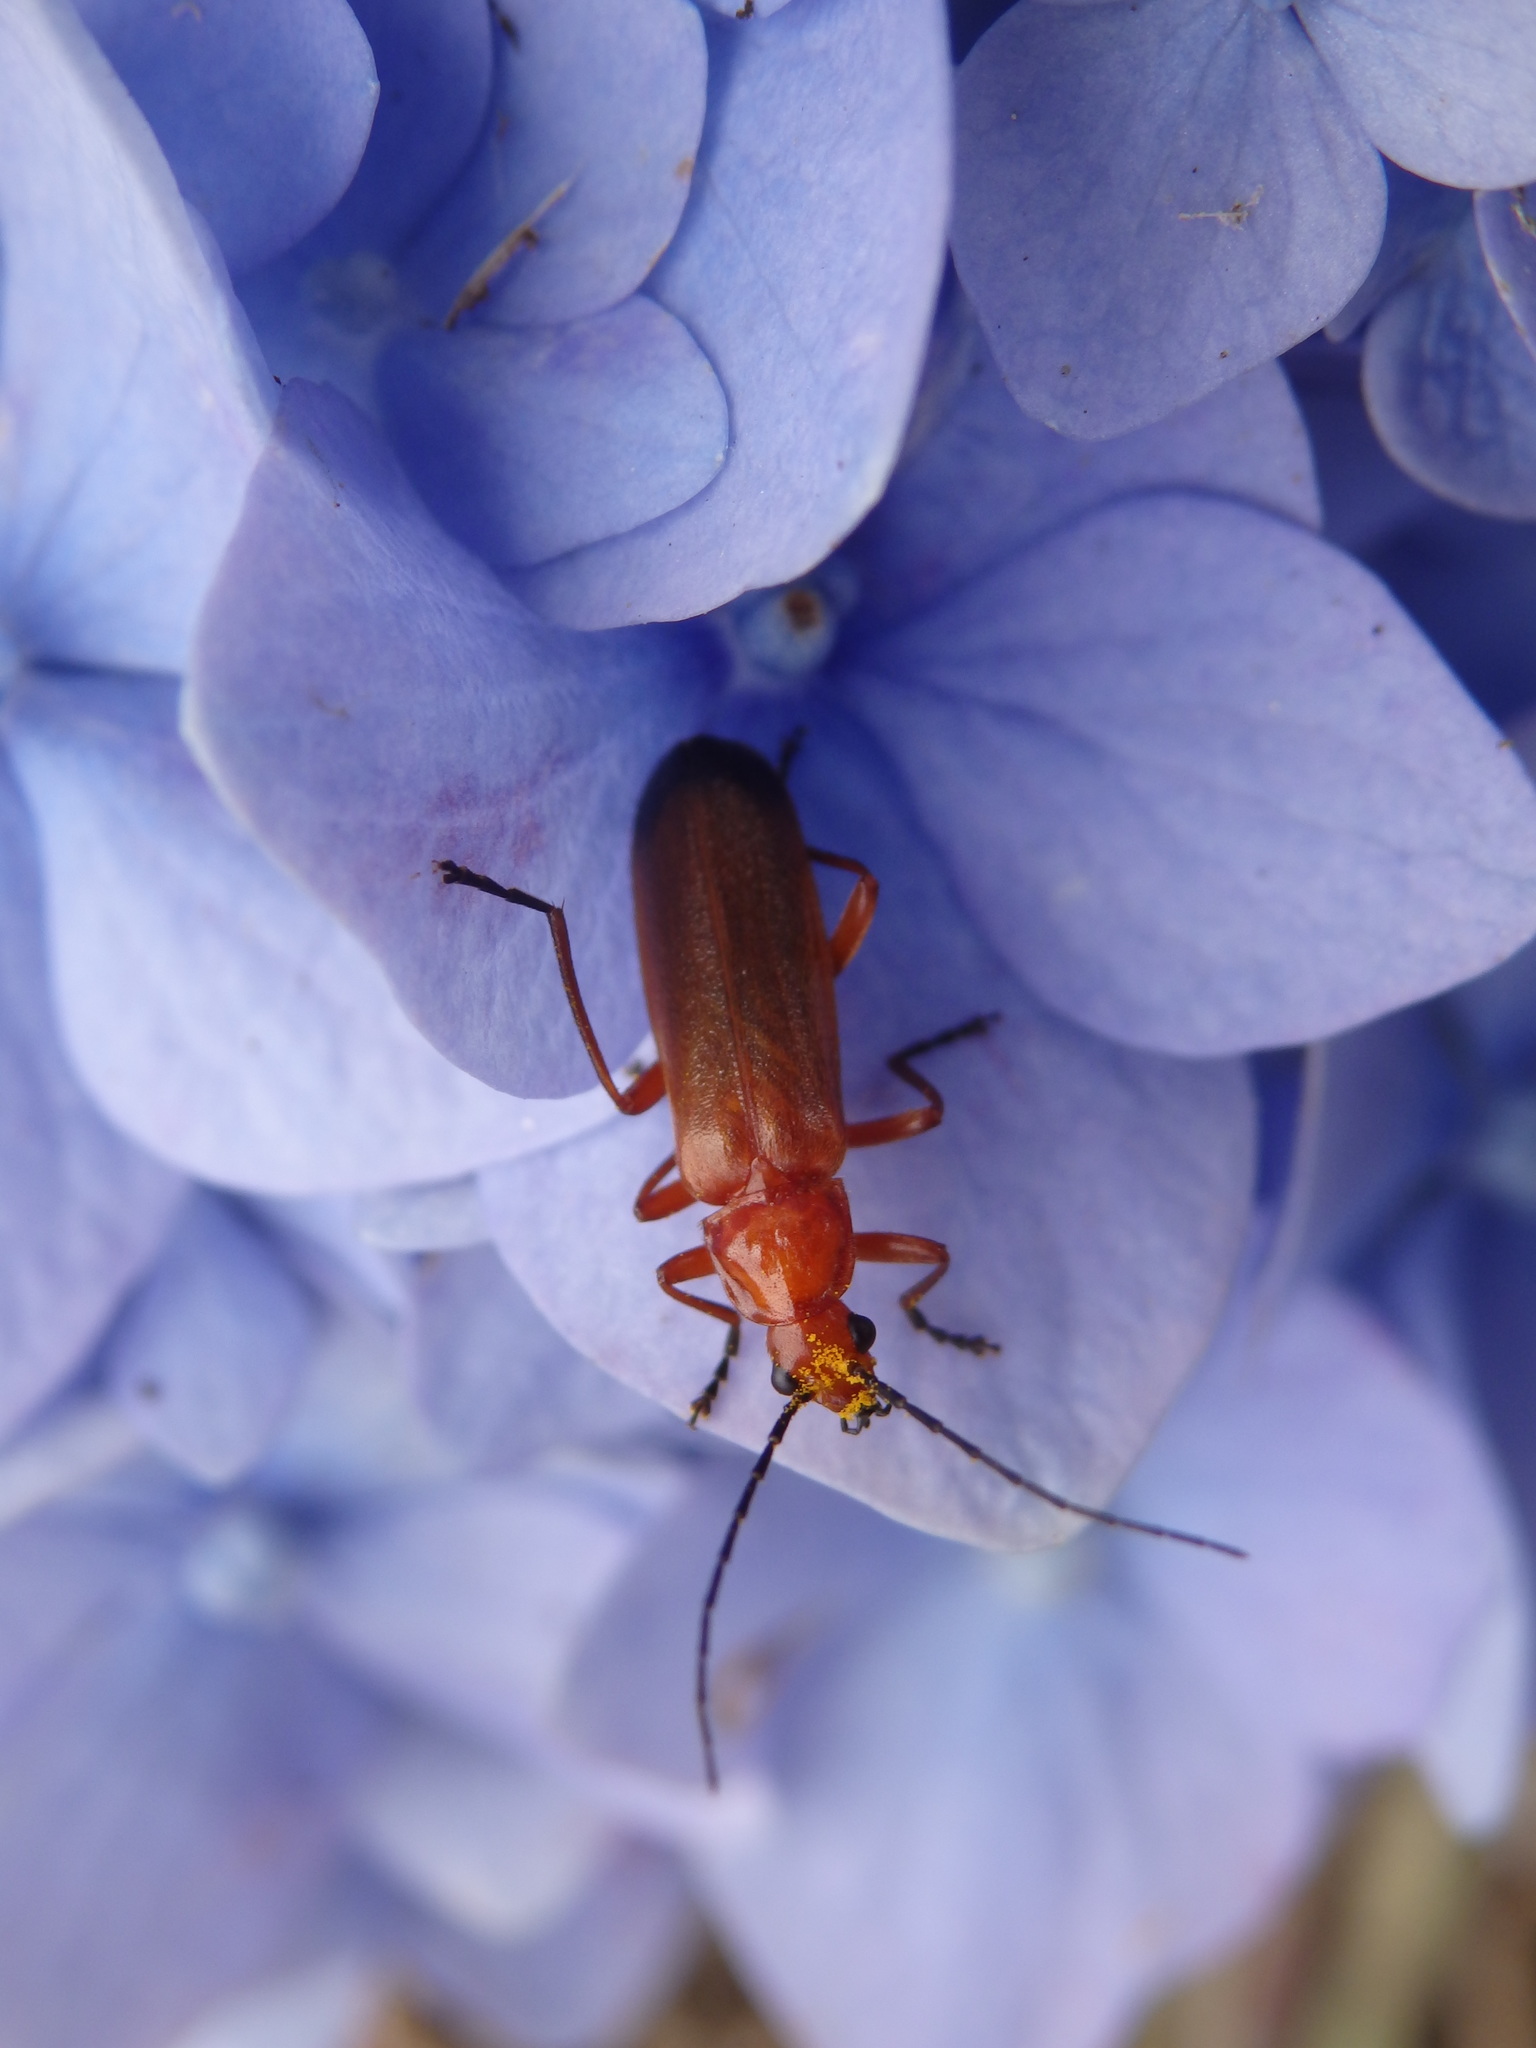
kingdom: Animalia
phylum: Arthropoda
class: Insecta
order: Coleoptera
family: Cantharidae
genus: Rhagonycha
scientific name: Rhagonycha fulva
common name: Common red soldier beetle
